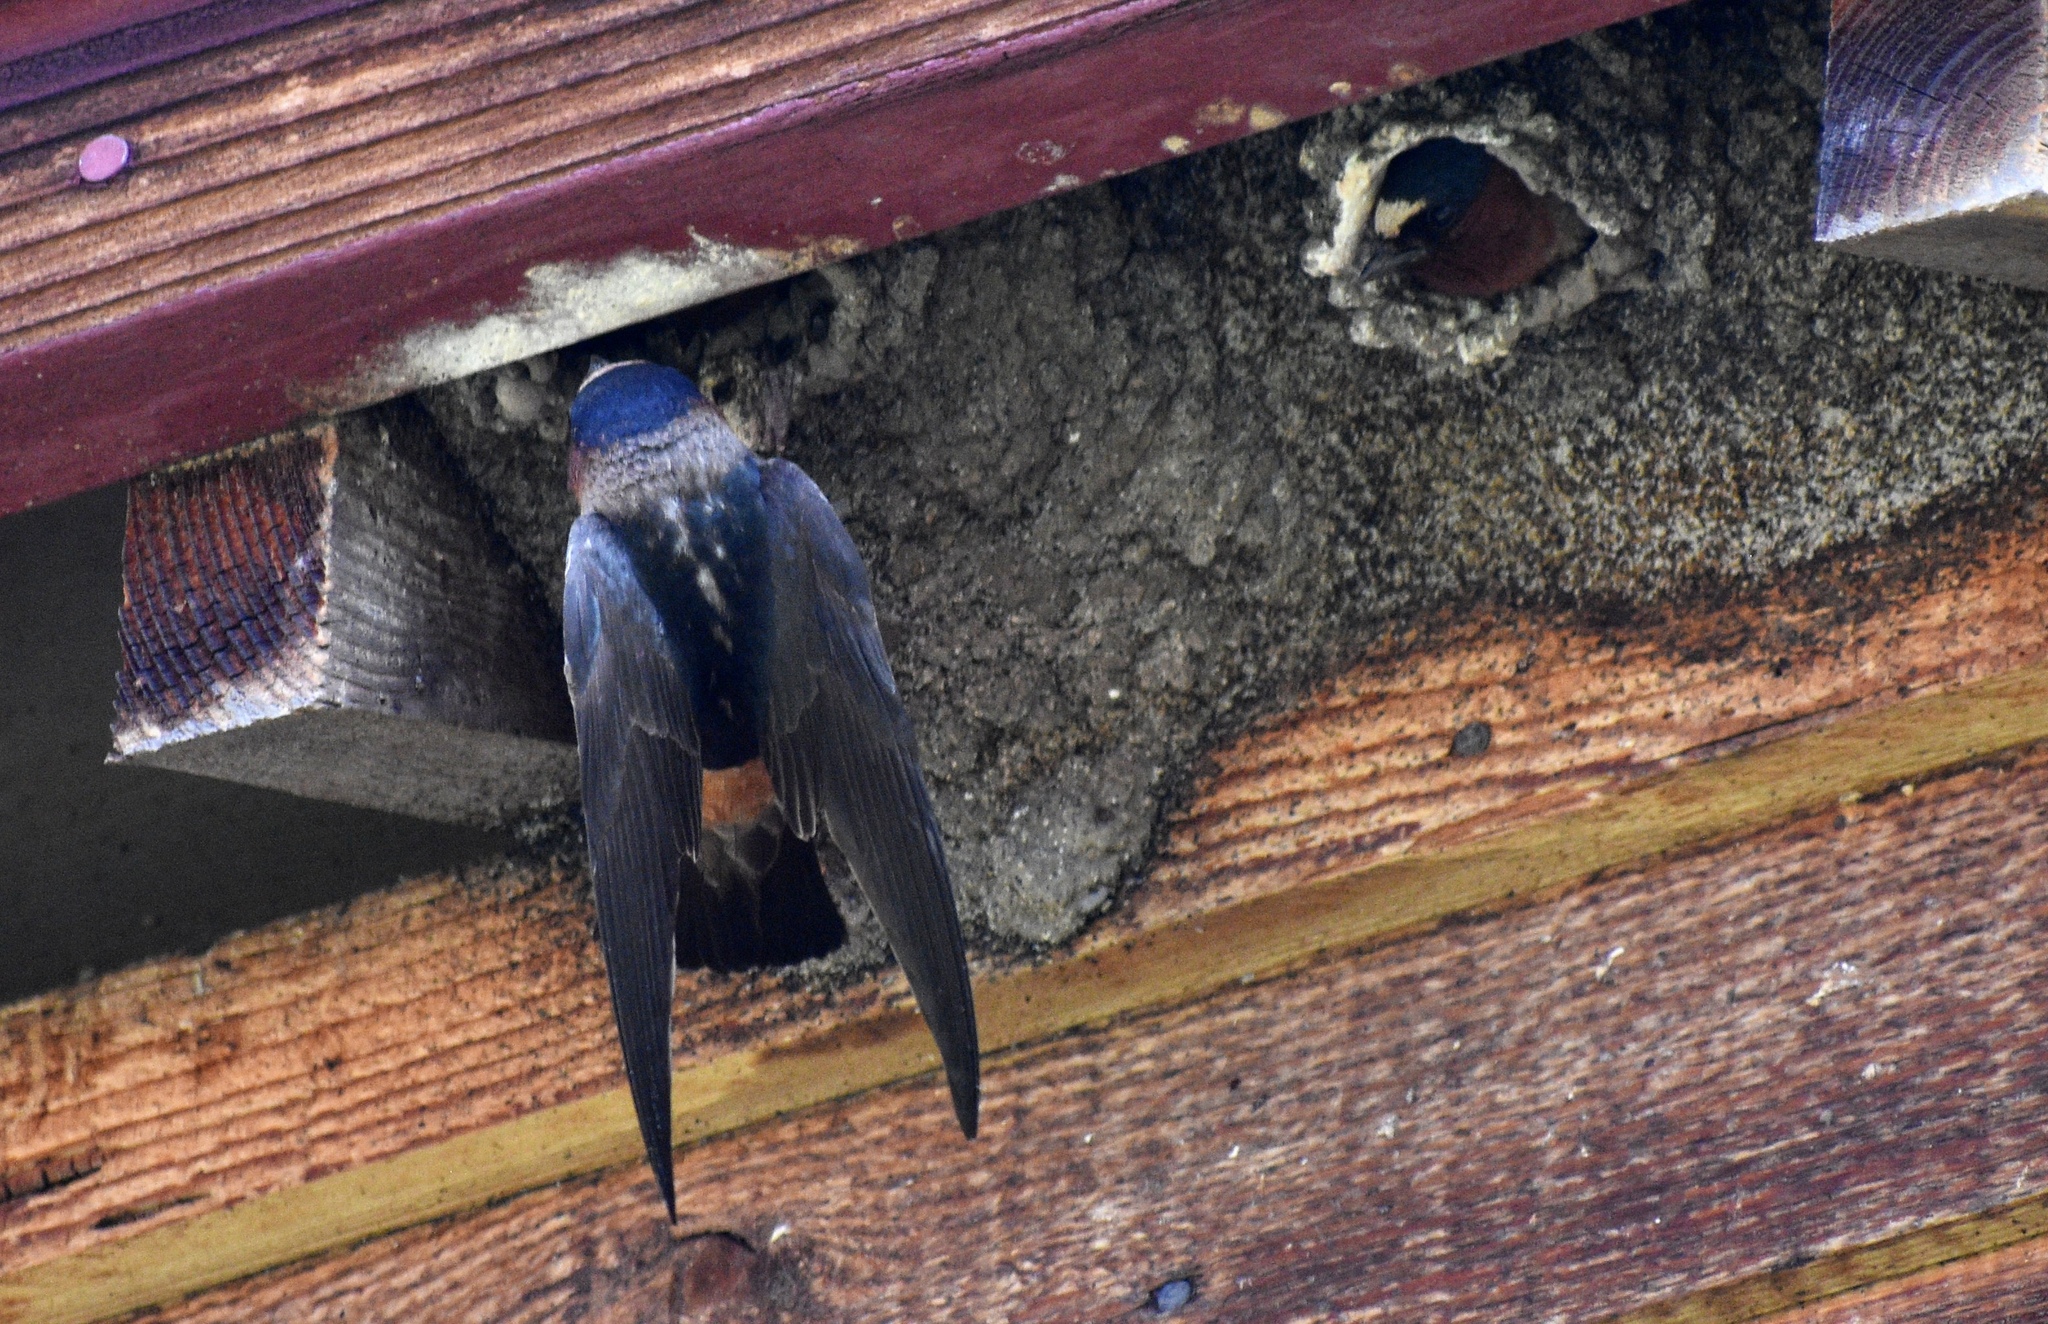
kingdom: Animalia
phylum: Chordata
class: Aves
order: Passeriformes
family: Hirundinidae
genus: Petrochelidon
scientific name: Petrochelidon pyrrhonota
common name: American cliff swallow
